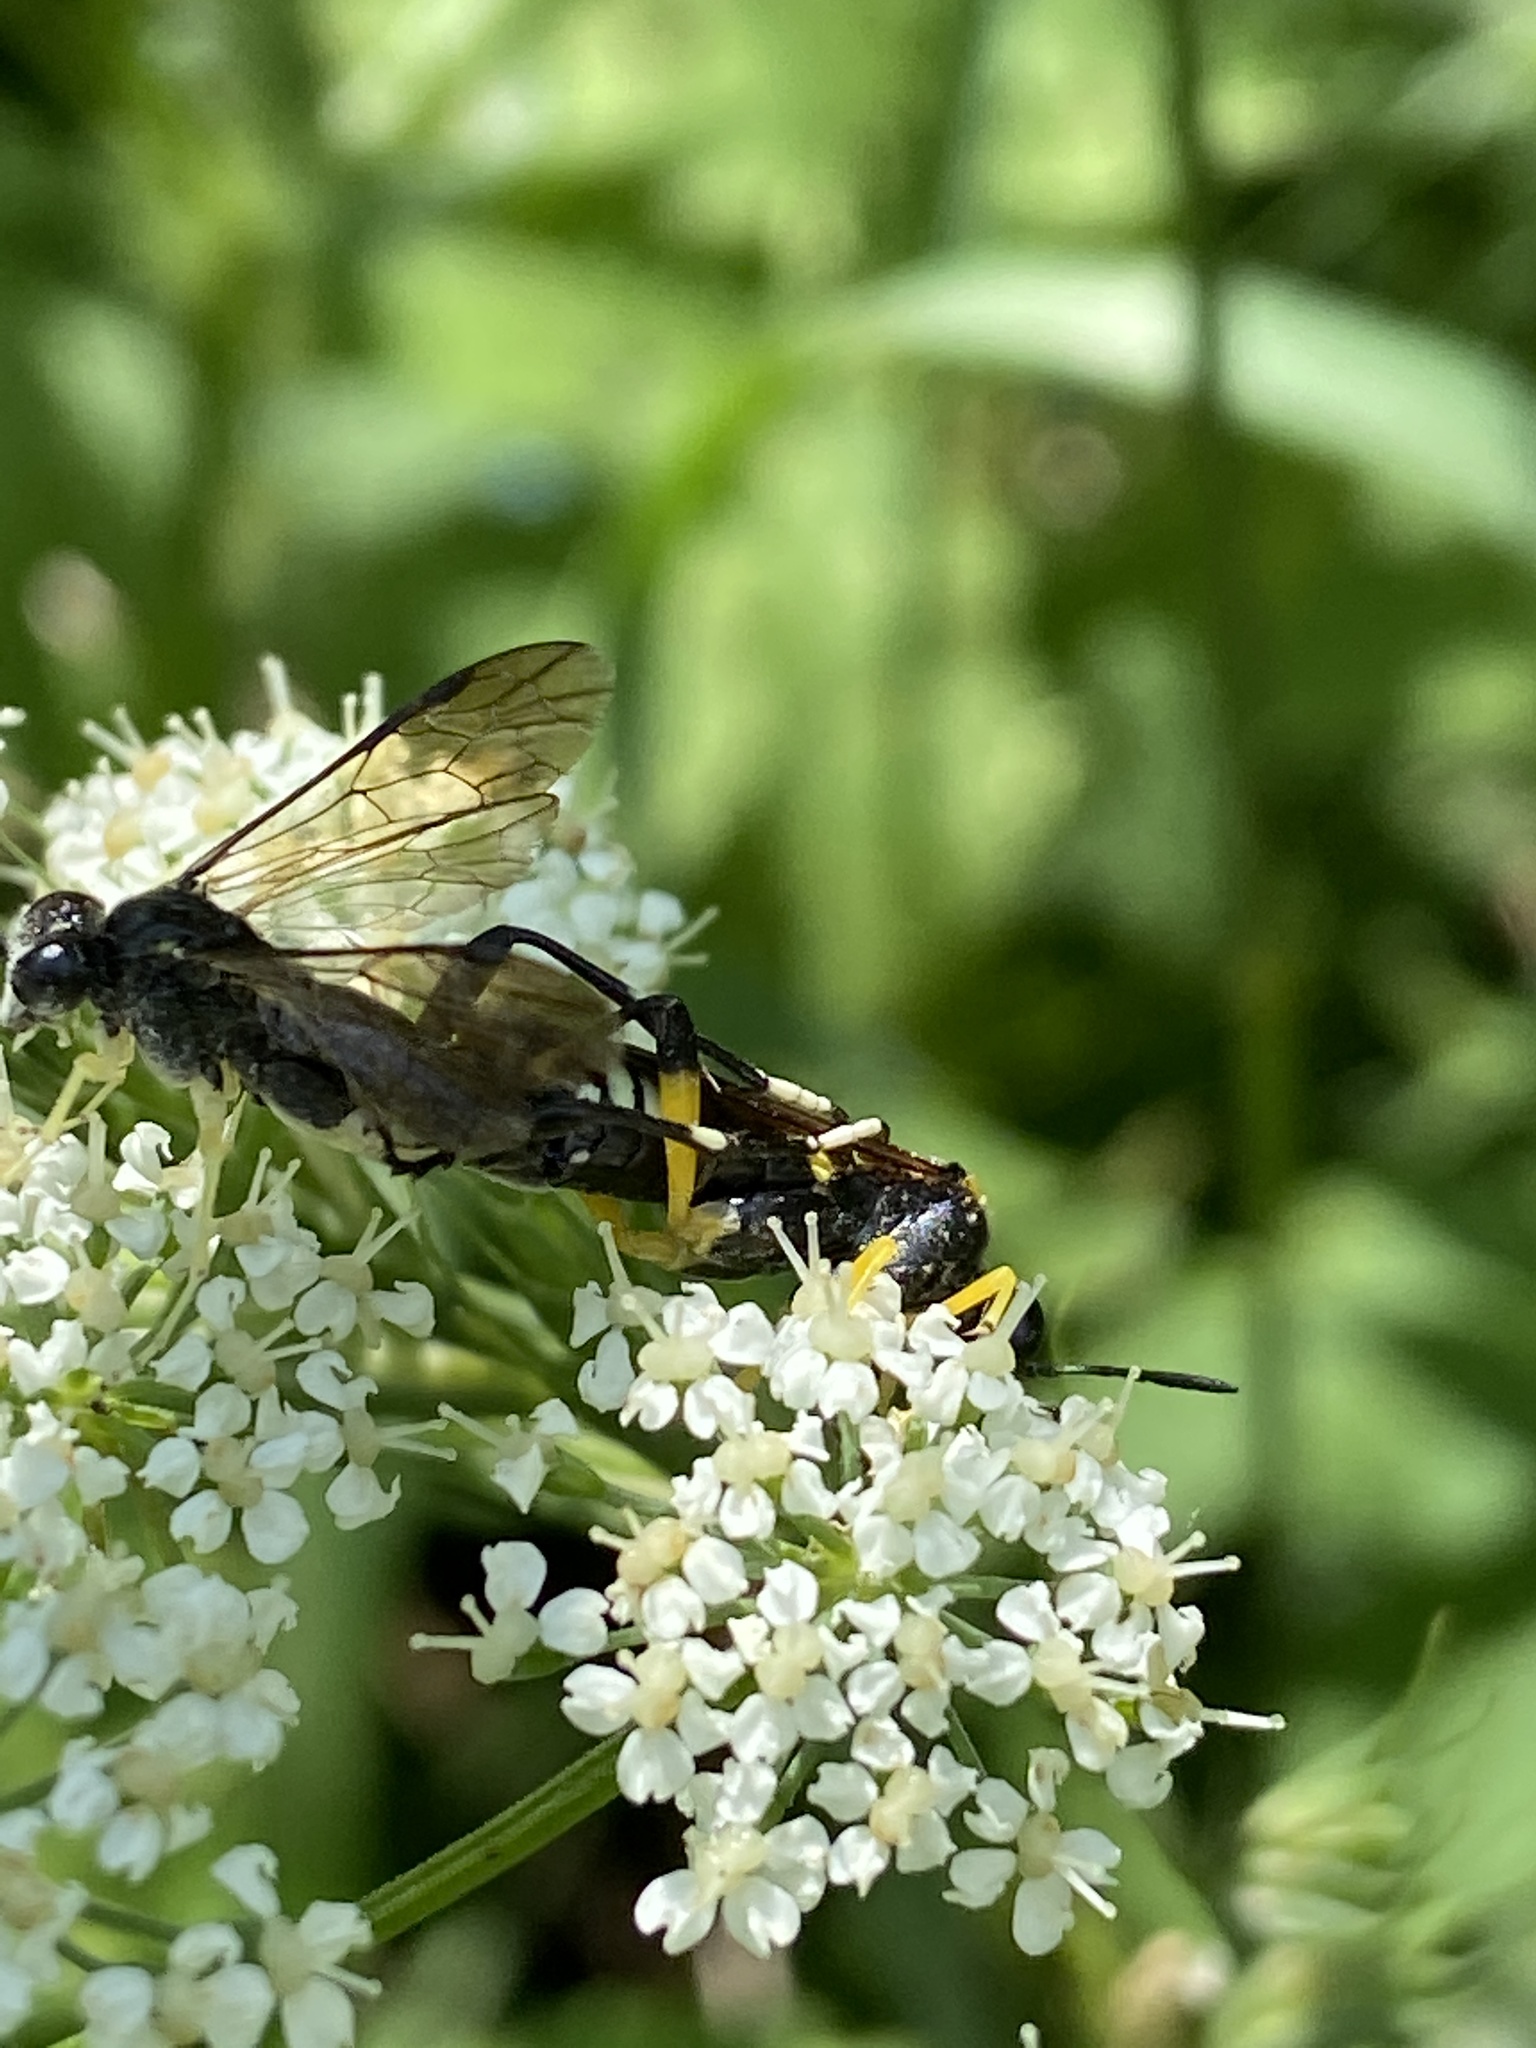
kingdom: Animalia
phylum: Arthropoda
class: Insecta
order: Hymenoptera
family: Tenthredinidae
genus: Macrophya
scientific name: Macrophya montana
